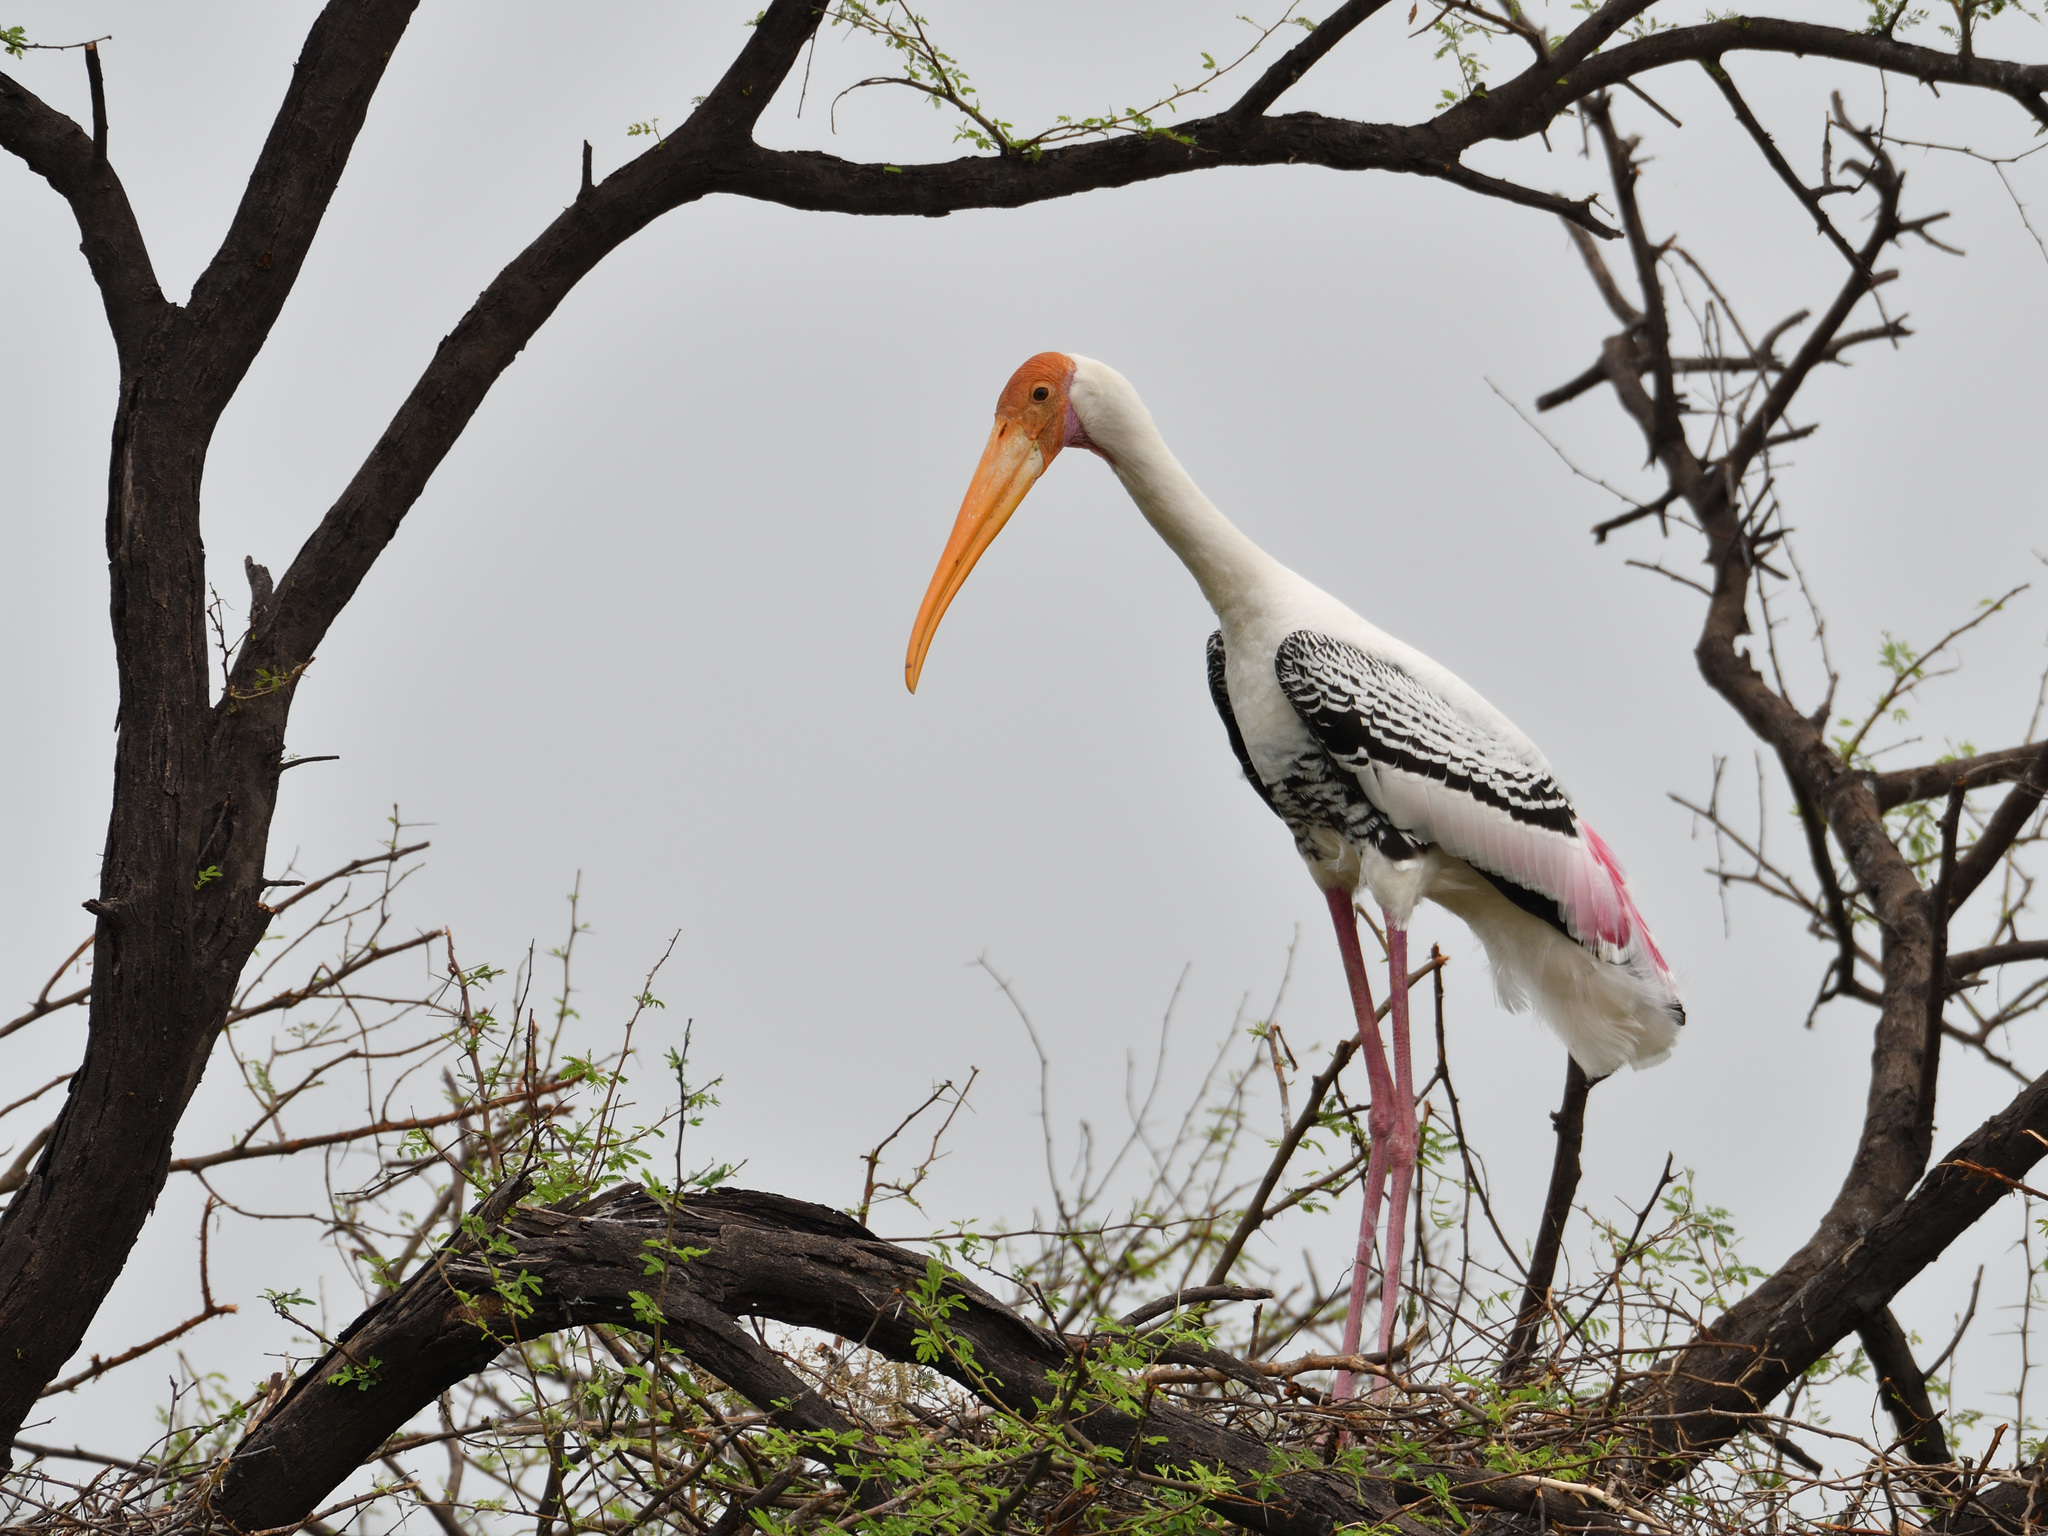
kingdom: Animalia
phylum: Chordata
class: Aves
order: Ciconiiformes
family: Ciconiidae
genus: Mycteria
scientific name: Mycteria leucocephala
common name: Painted stork
